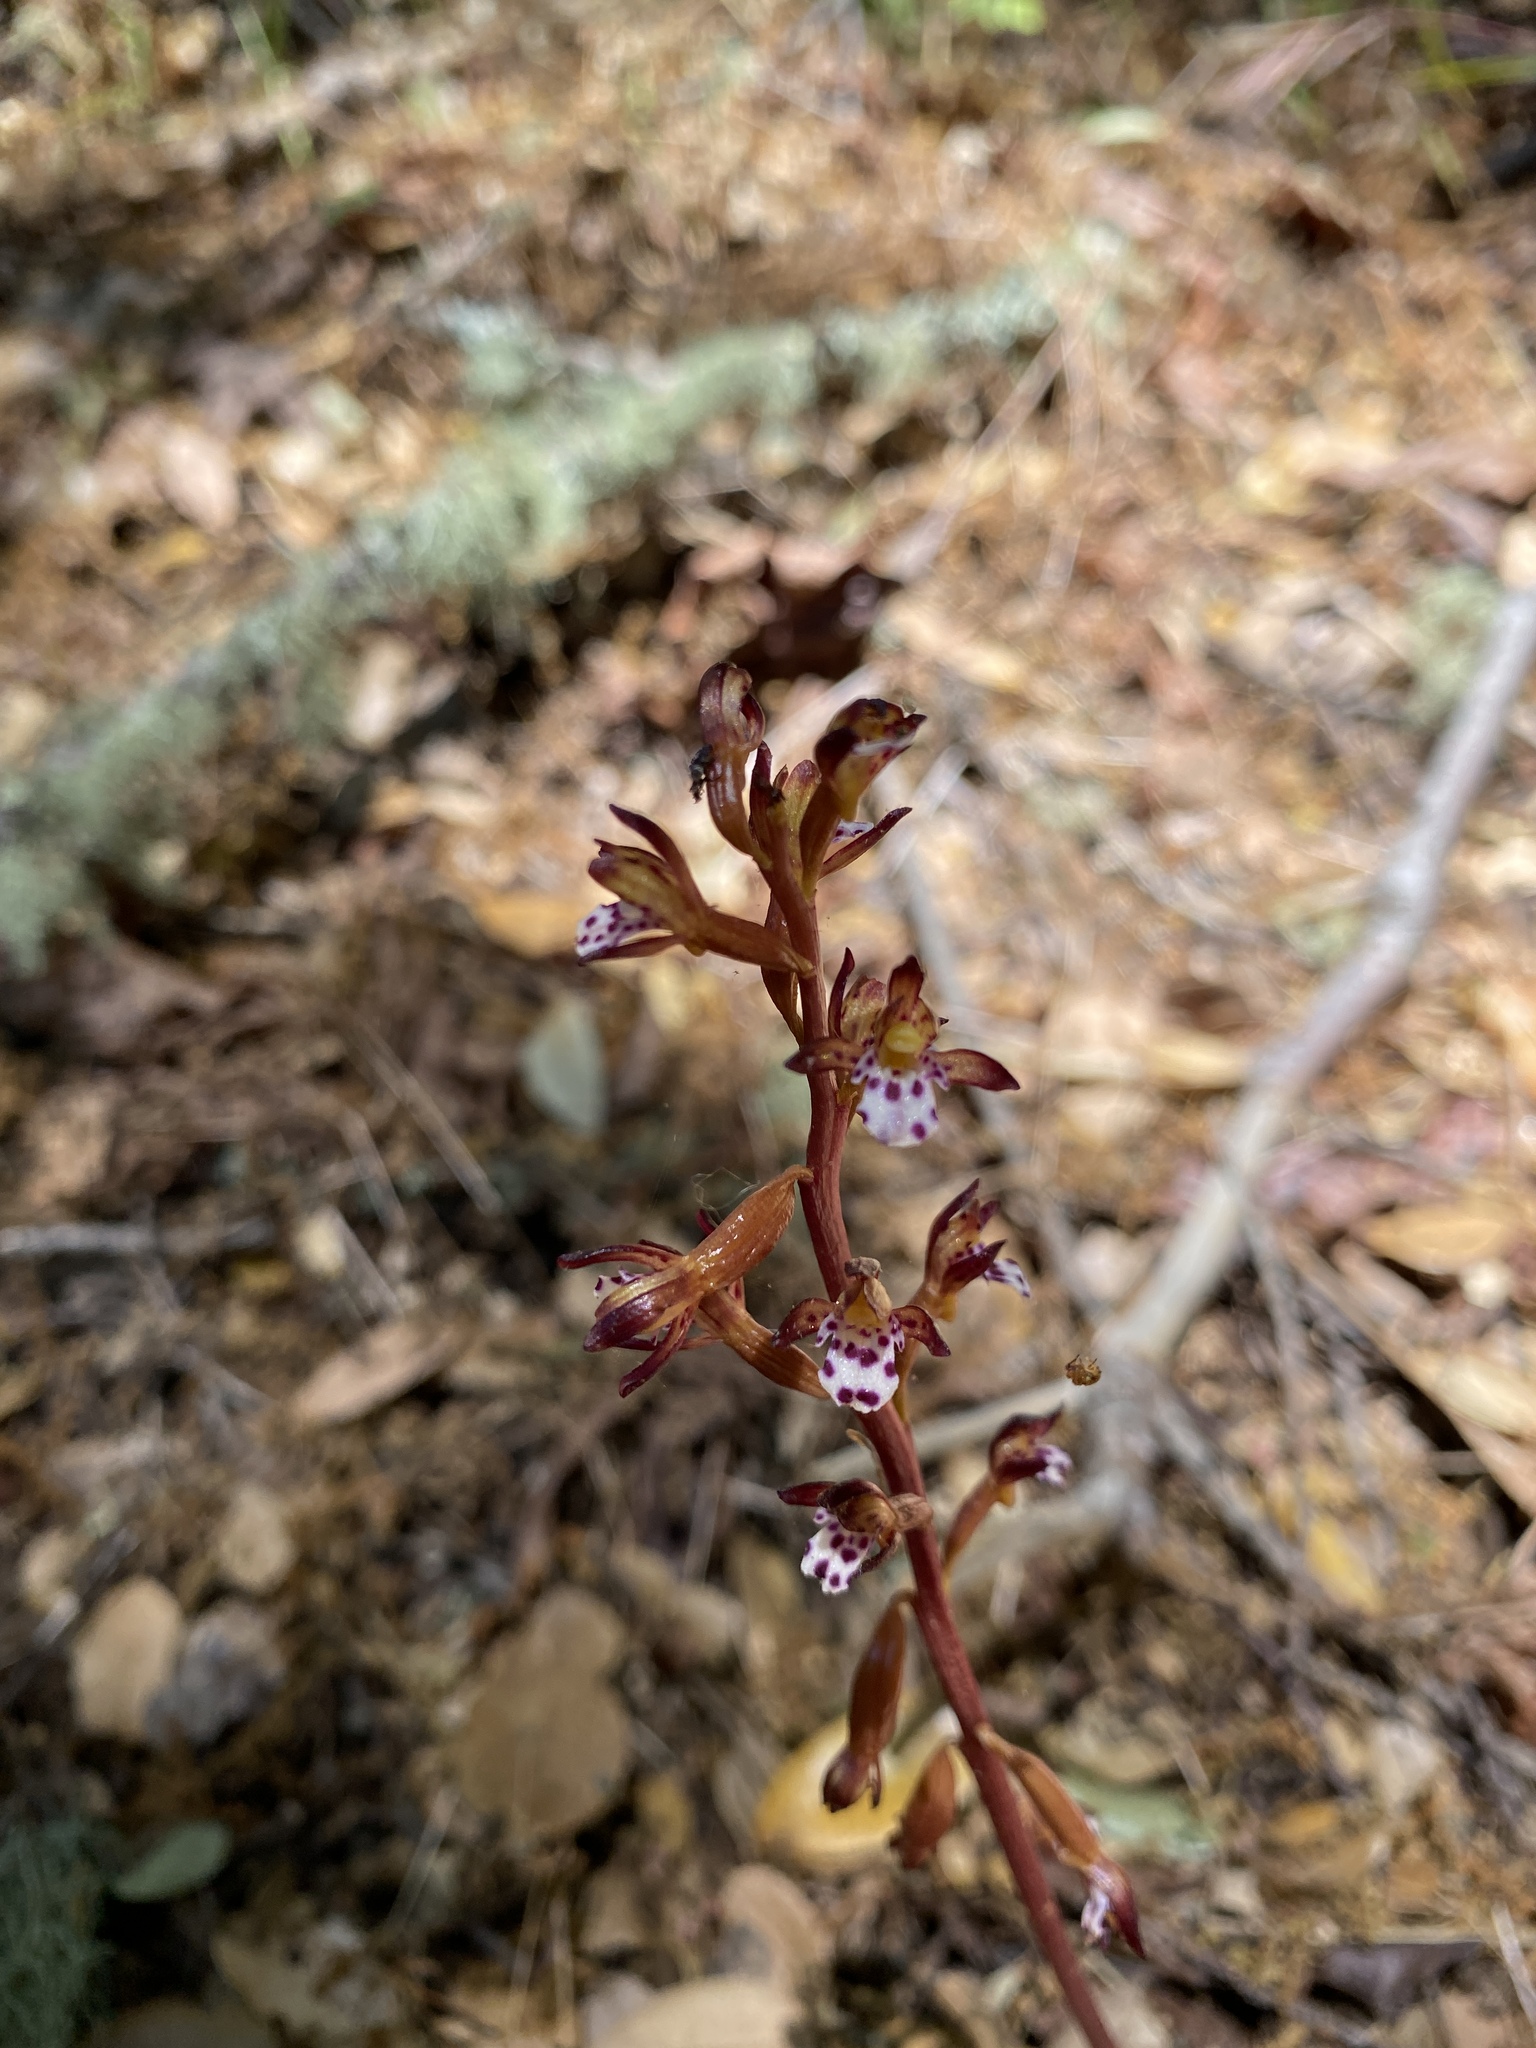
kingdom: Plantae
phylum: Tracheophyta
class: Liliopsida
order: Asparagales
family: Orchidaceae
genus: Corallorhiza
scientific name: Corallorhiza maculata
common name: Spotted coralroot
